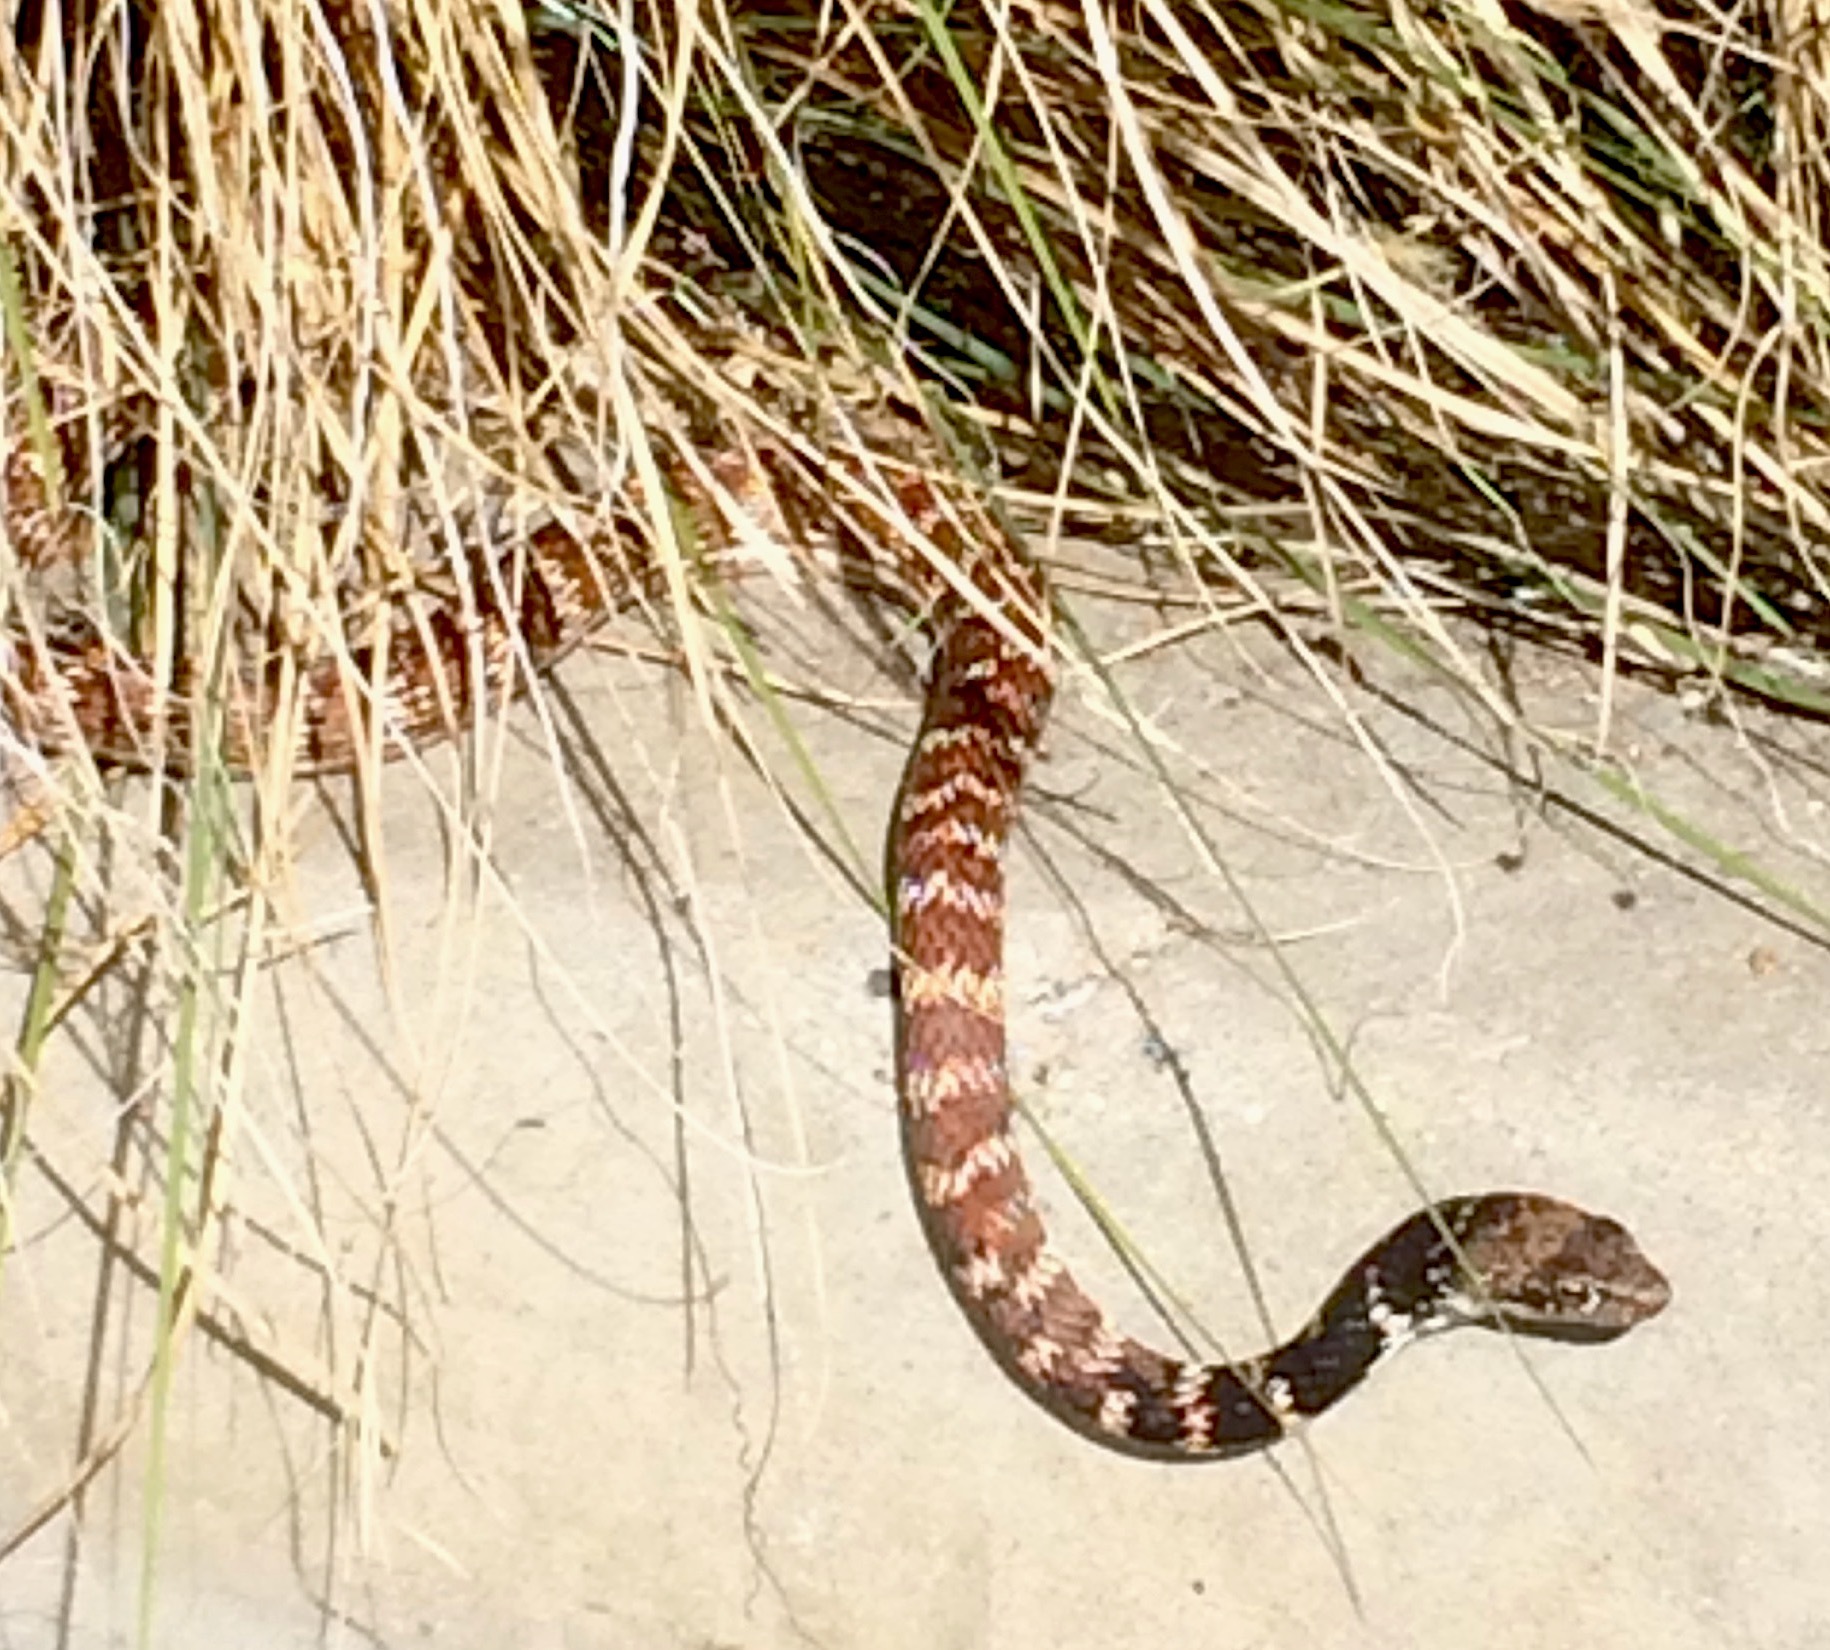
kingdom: Animalia
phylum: Chordata
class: Squamata
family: Colubridae
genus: Masticophis
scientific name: Masticophis flagellum
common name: Coachwhip
